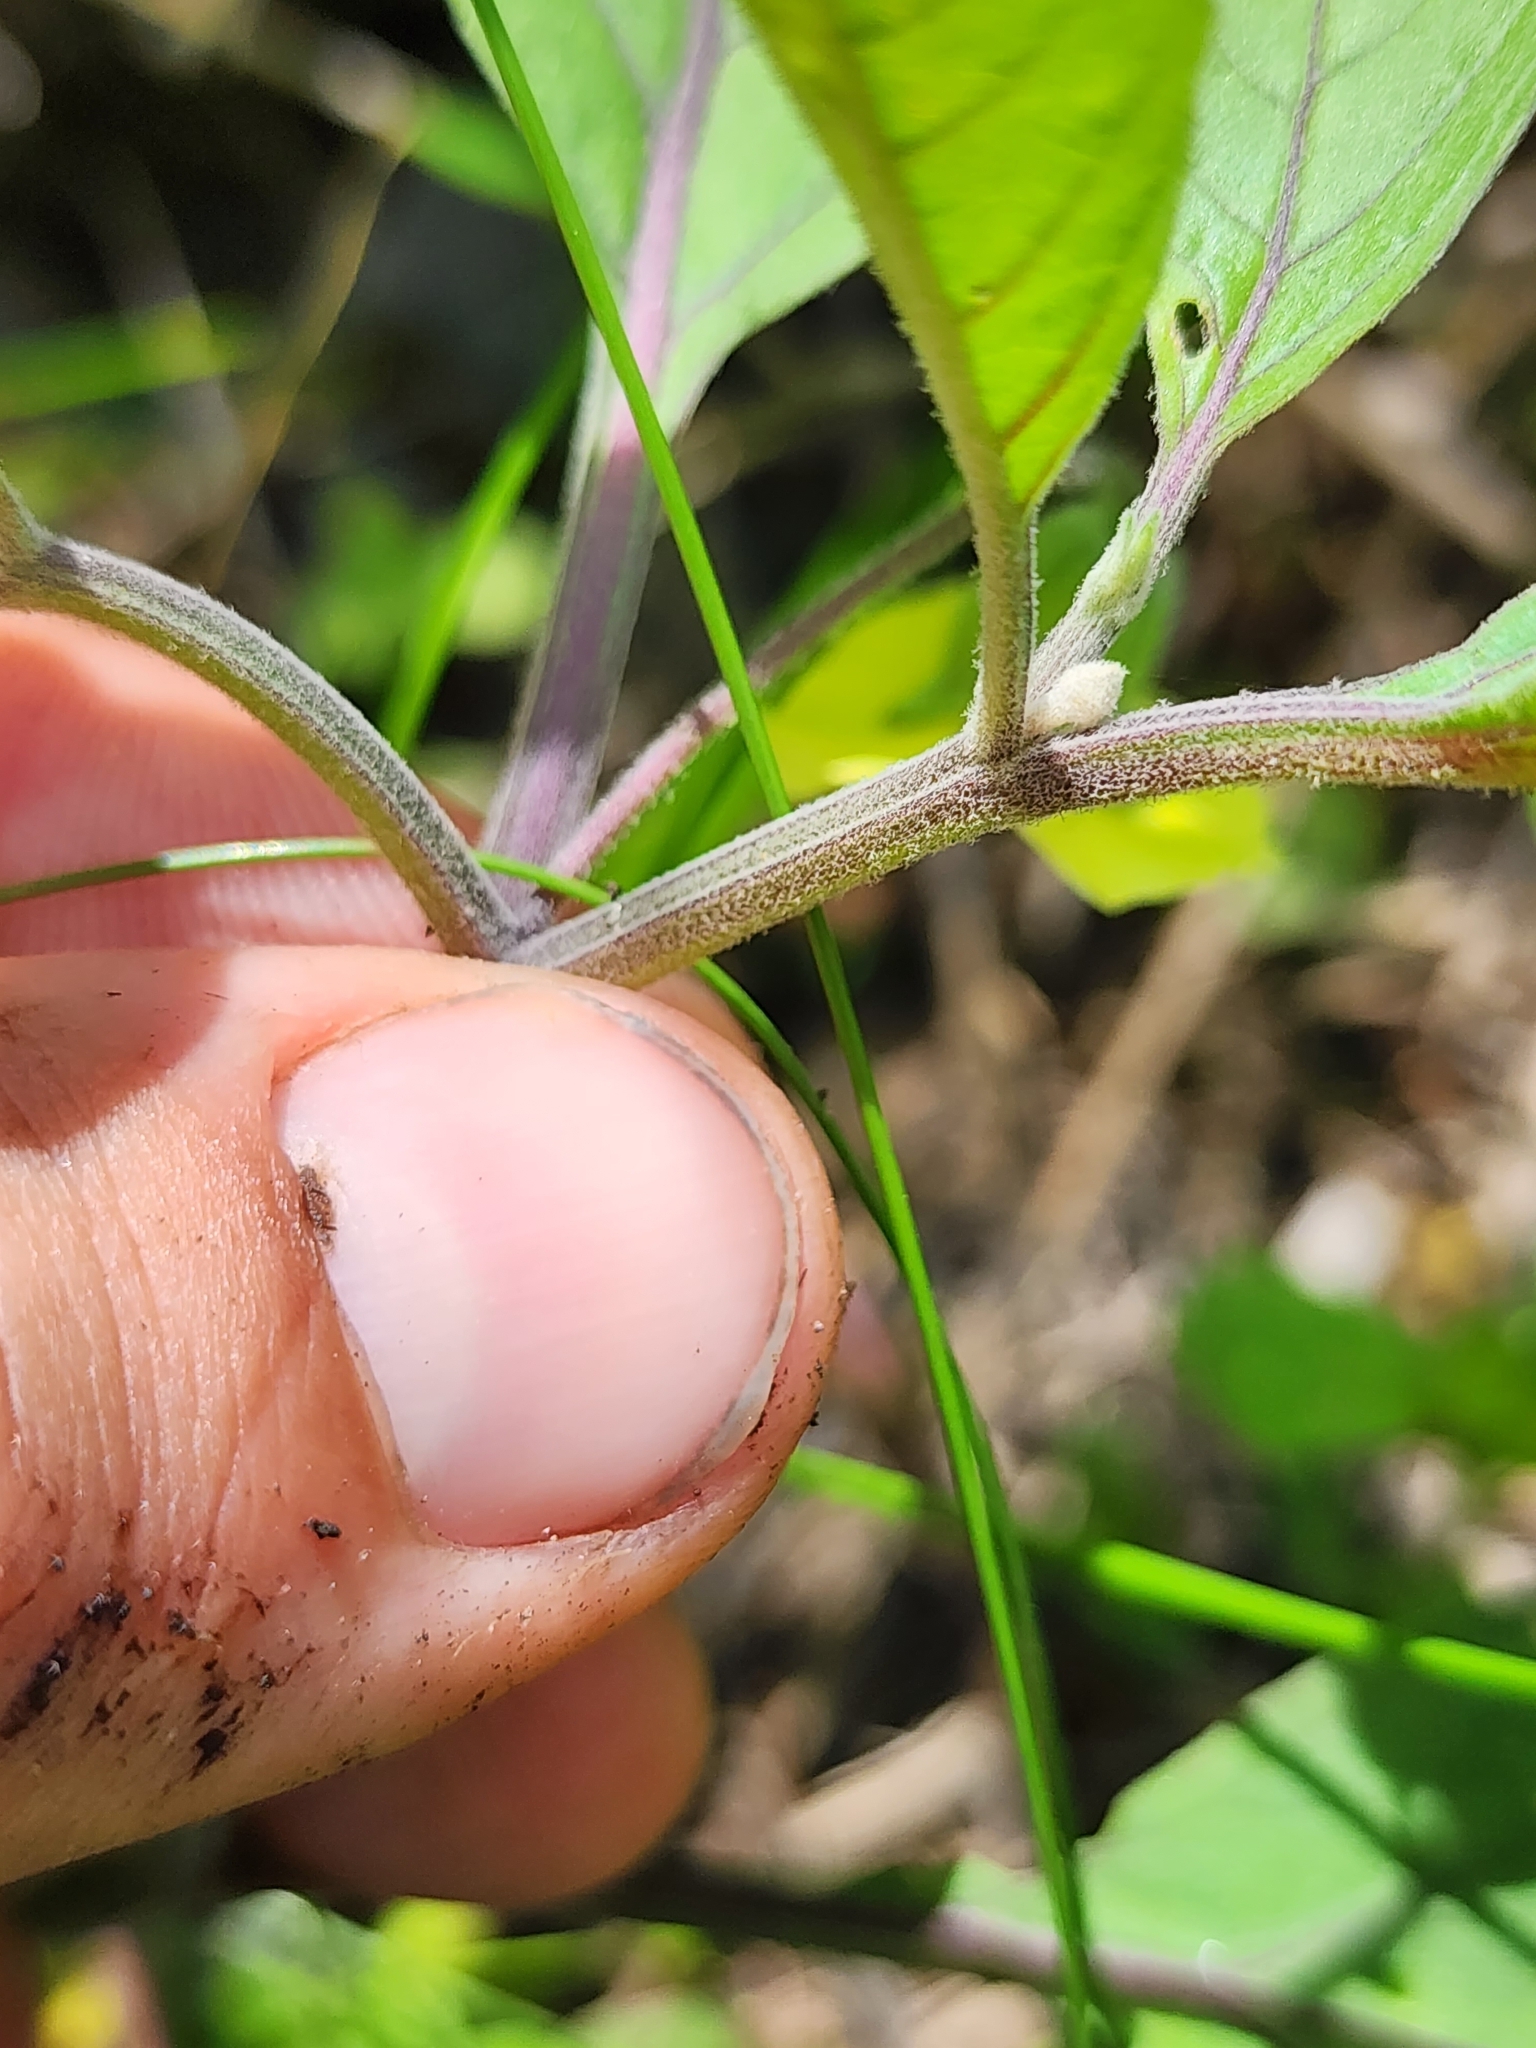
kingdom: Plantae
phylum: Tracheophyta
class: Magnoliopsida
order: Solanales
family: Solanaceae
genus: Physalis
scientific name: Physalis walteri
